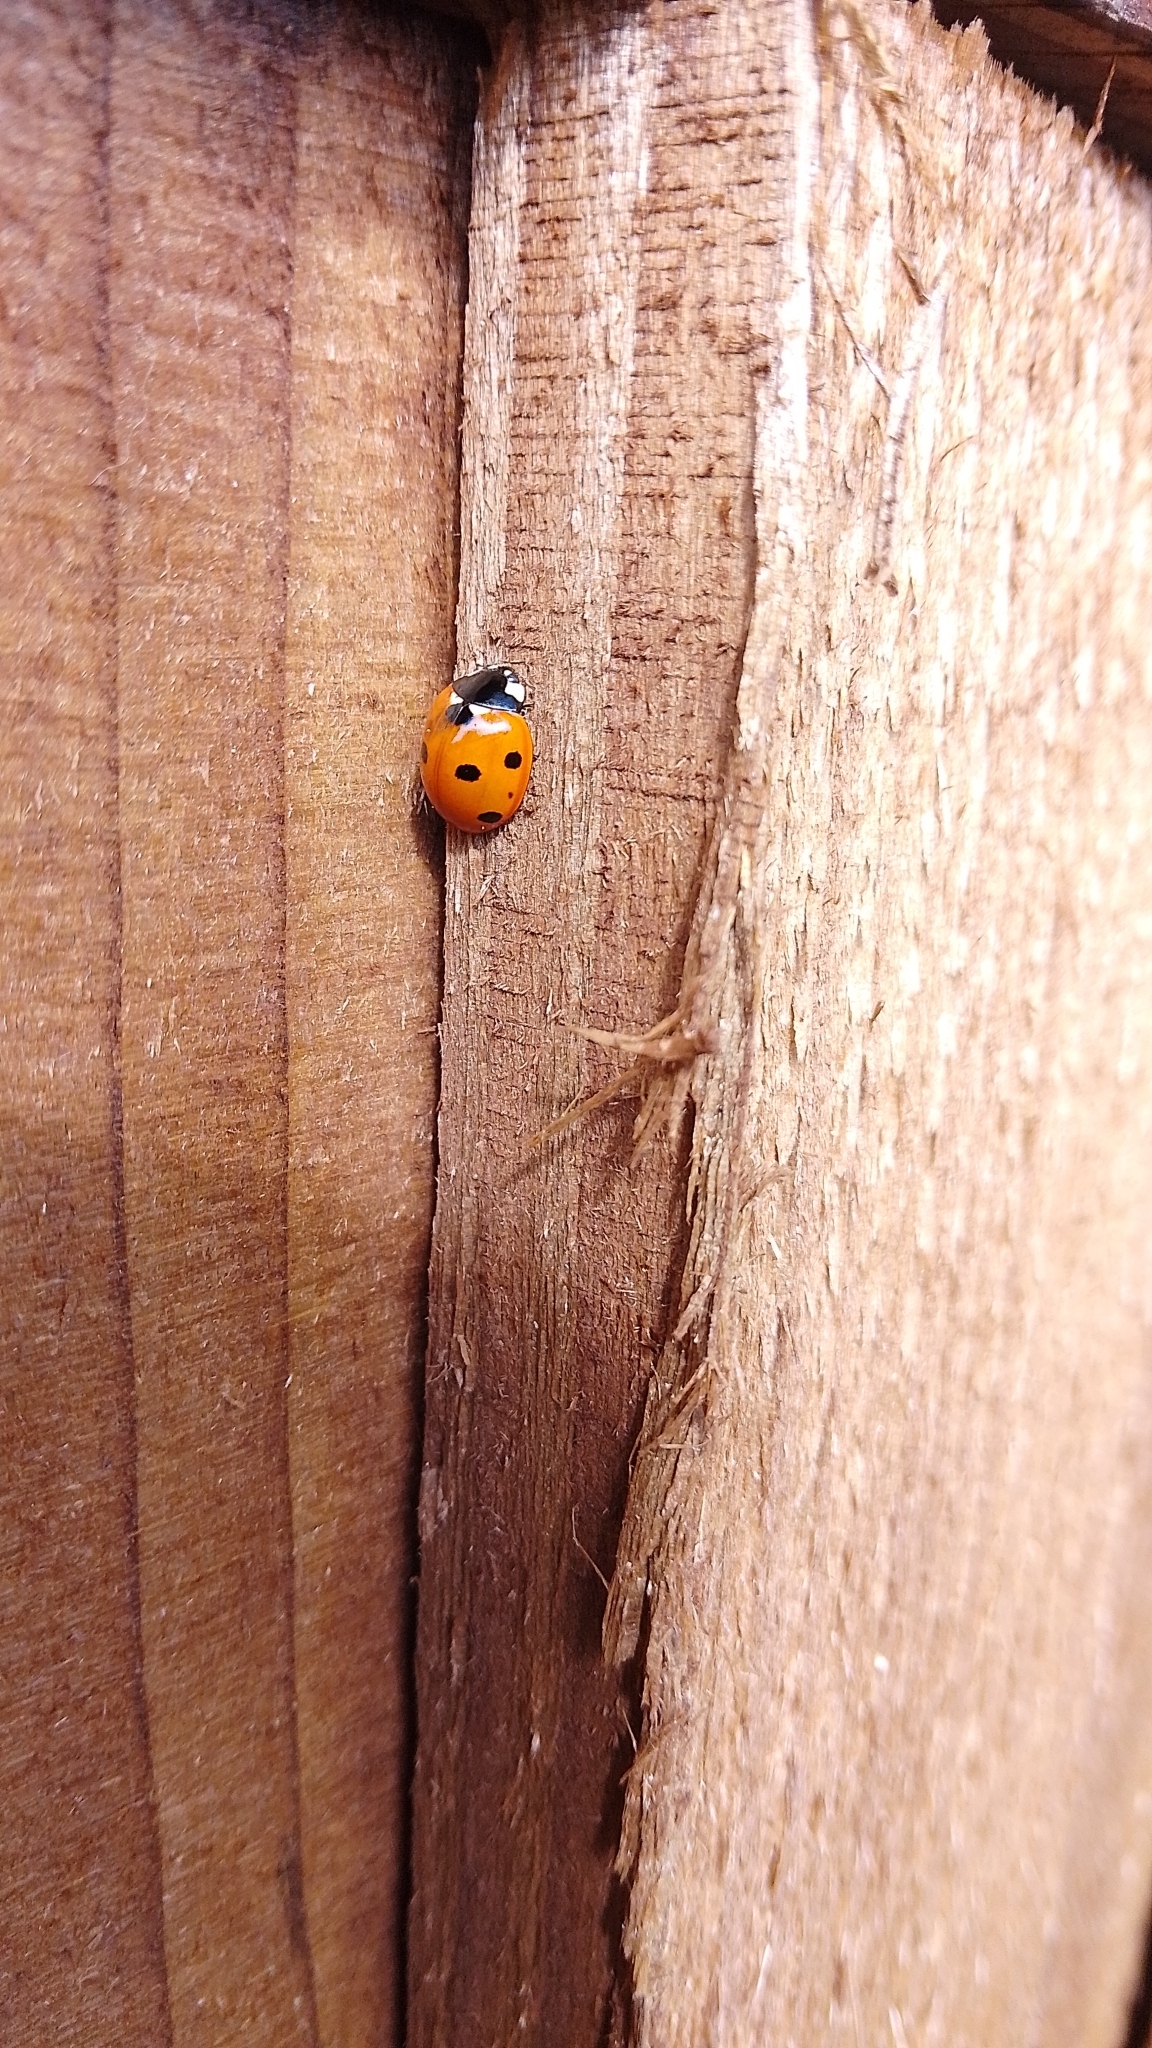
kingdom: Animalia
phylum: Arthropoda
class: Insecta
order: Coleoptera
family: Coccinellidae
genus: Coccinella
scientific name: Coccinella septempunctata
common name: Sevenspotted lady beetle
